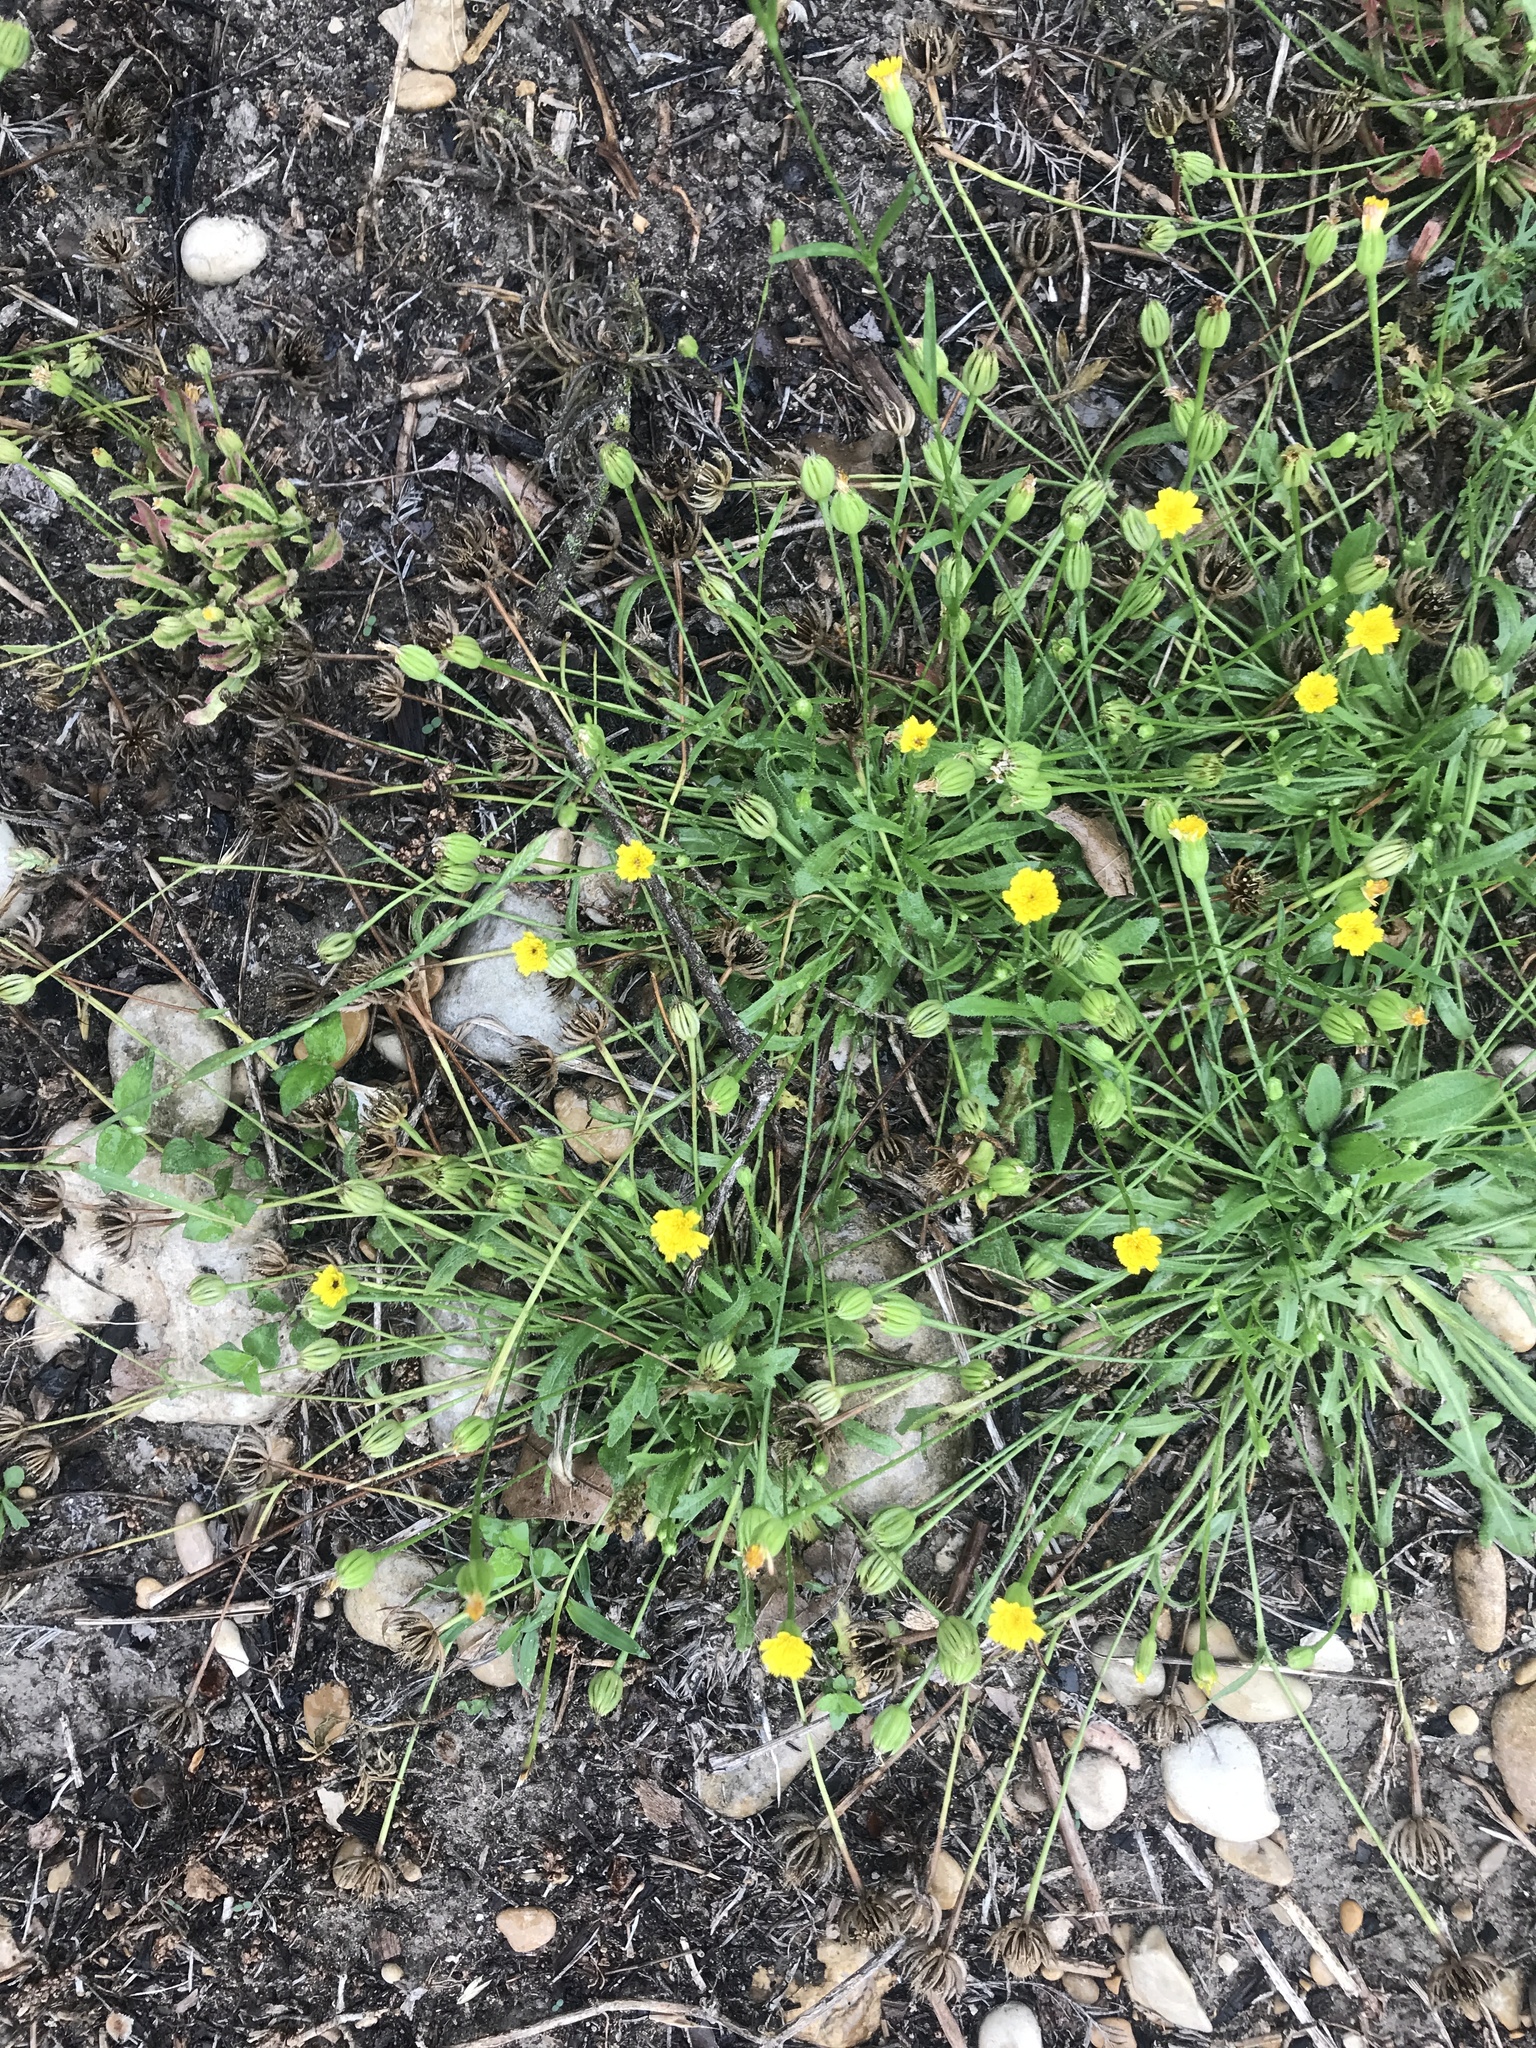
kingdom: Plantae
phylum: Tracheophyta
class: Magnoliopsida
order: Asterales
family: Asteraceae
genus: Hedypnois
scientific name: Hedypnois rhagadioloides
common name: Cretan weed
